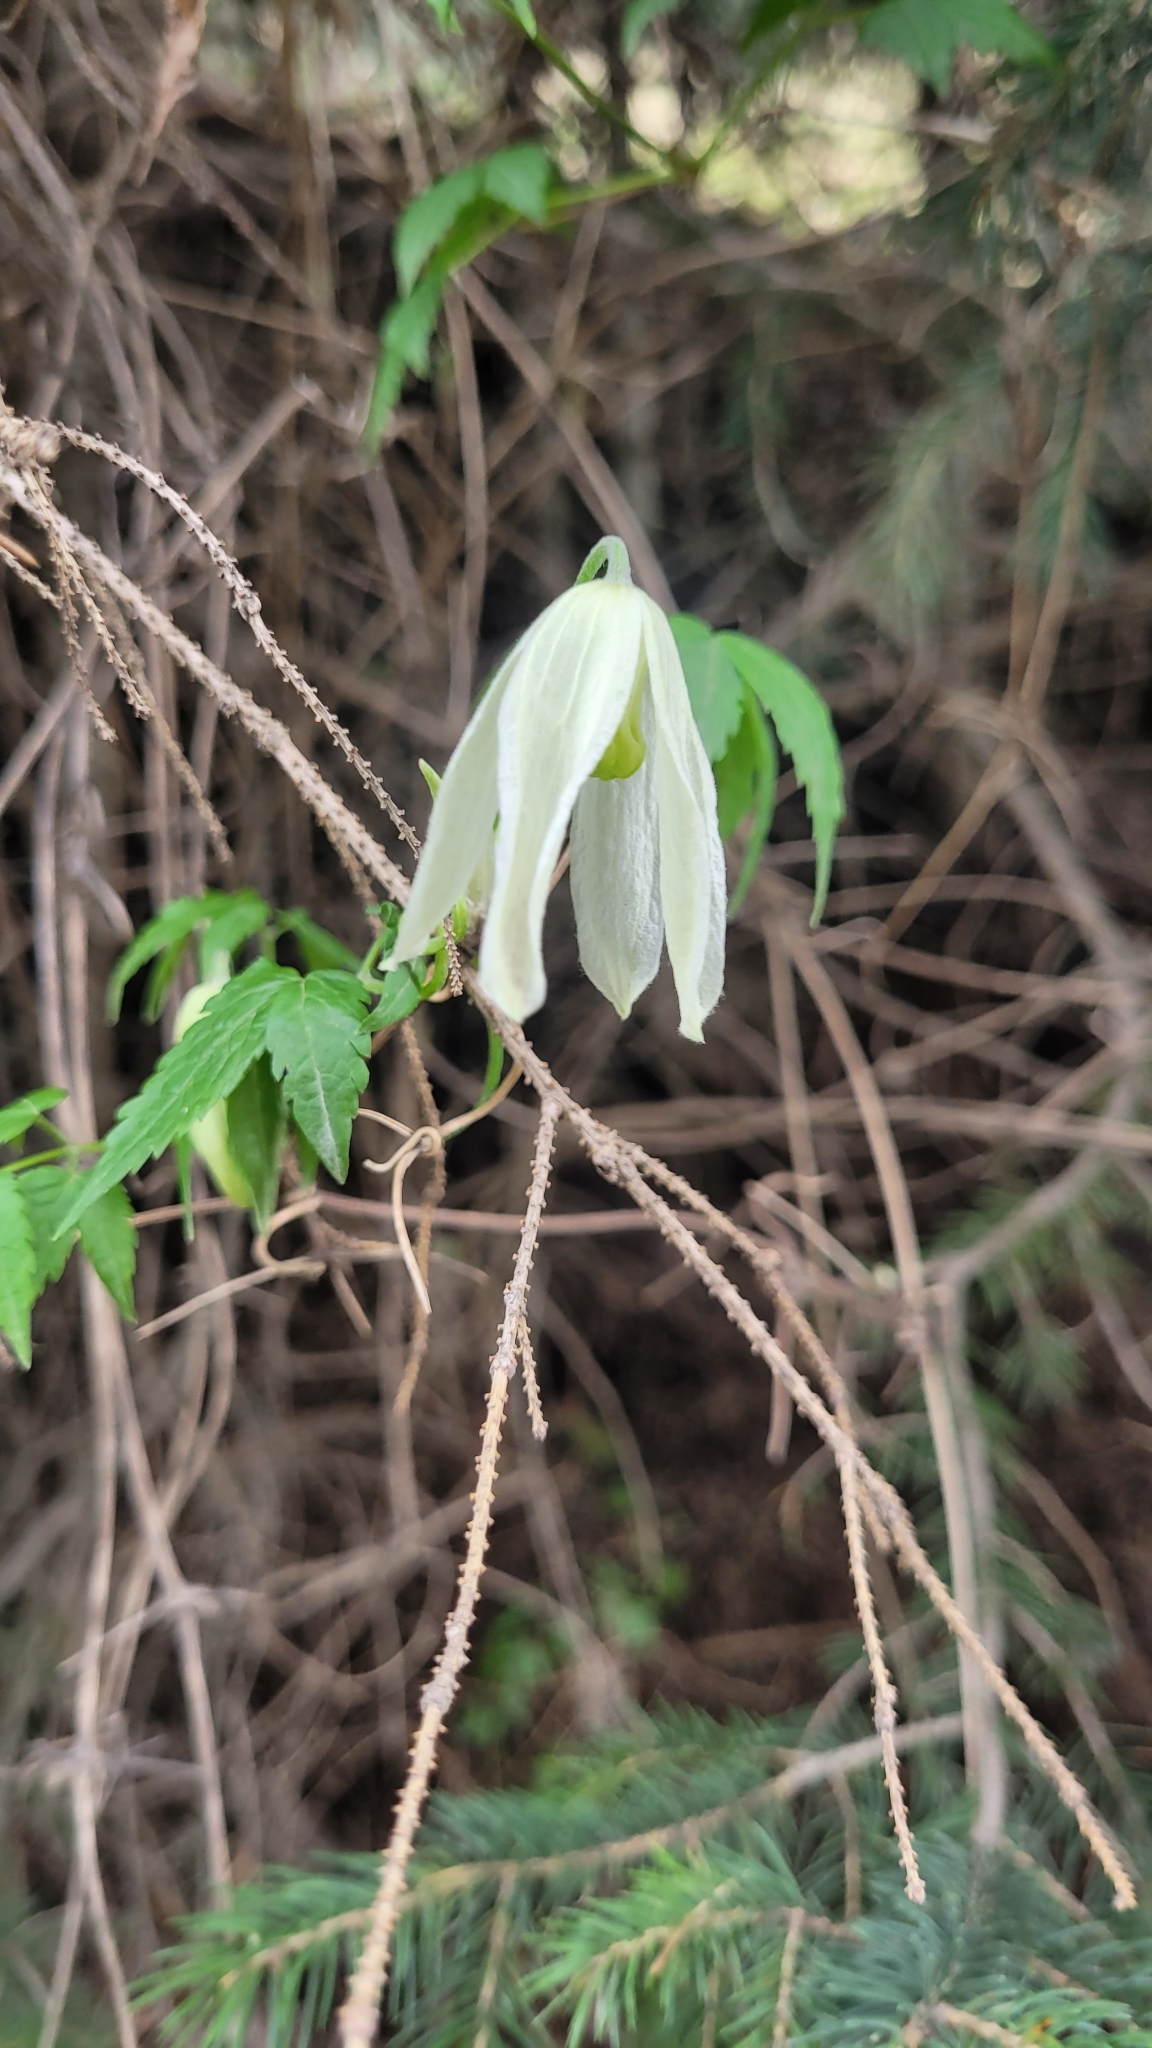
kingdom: Plantae
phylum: Tracheophyta
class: Magnoliopsida
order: Ranunculales
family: Ranunculaceae
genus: Clematis
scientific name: Clematis alpina
